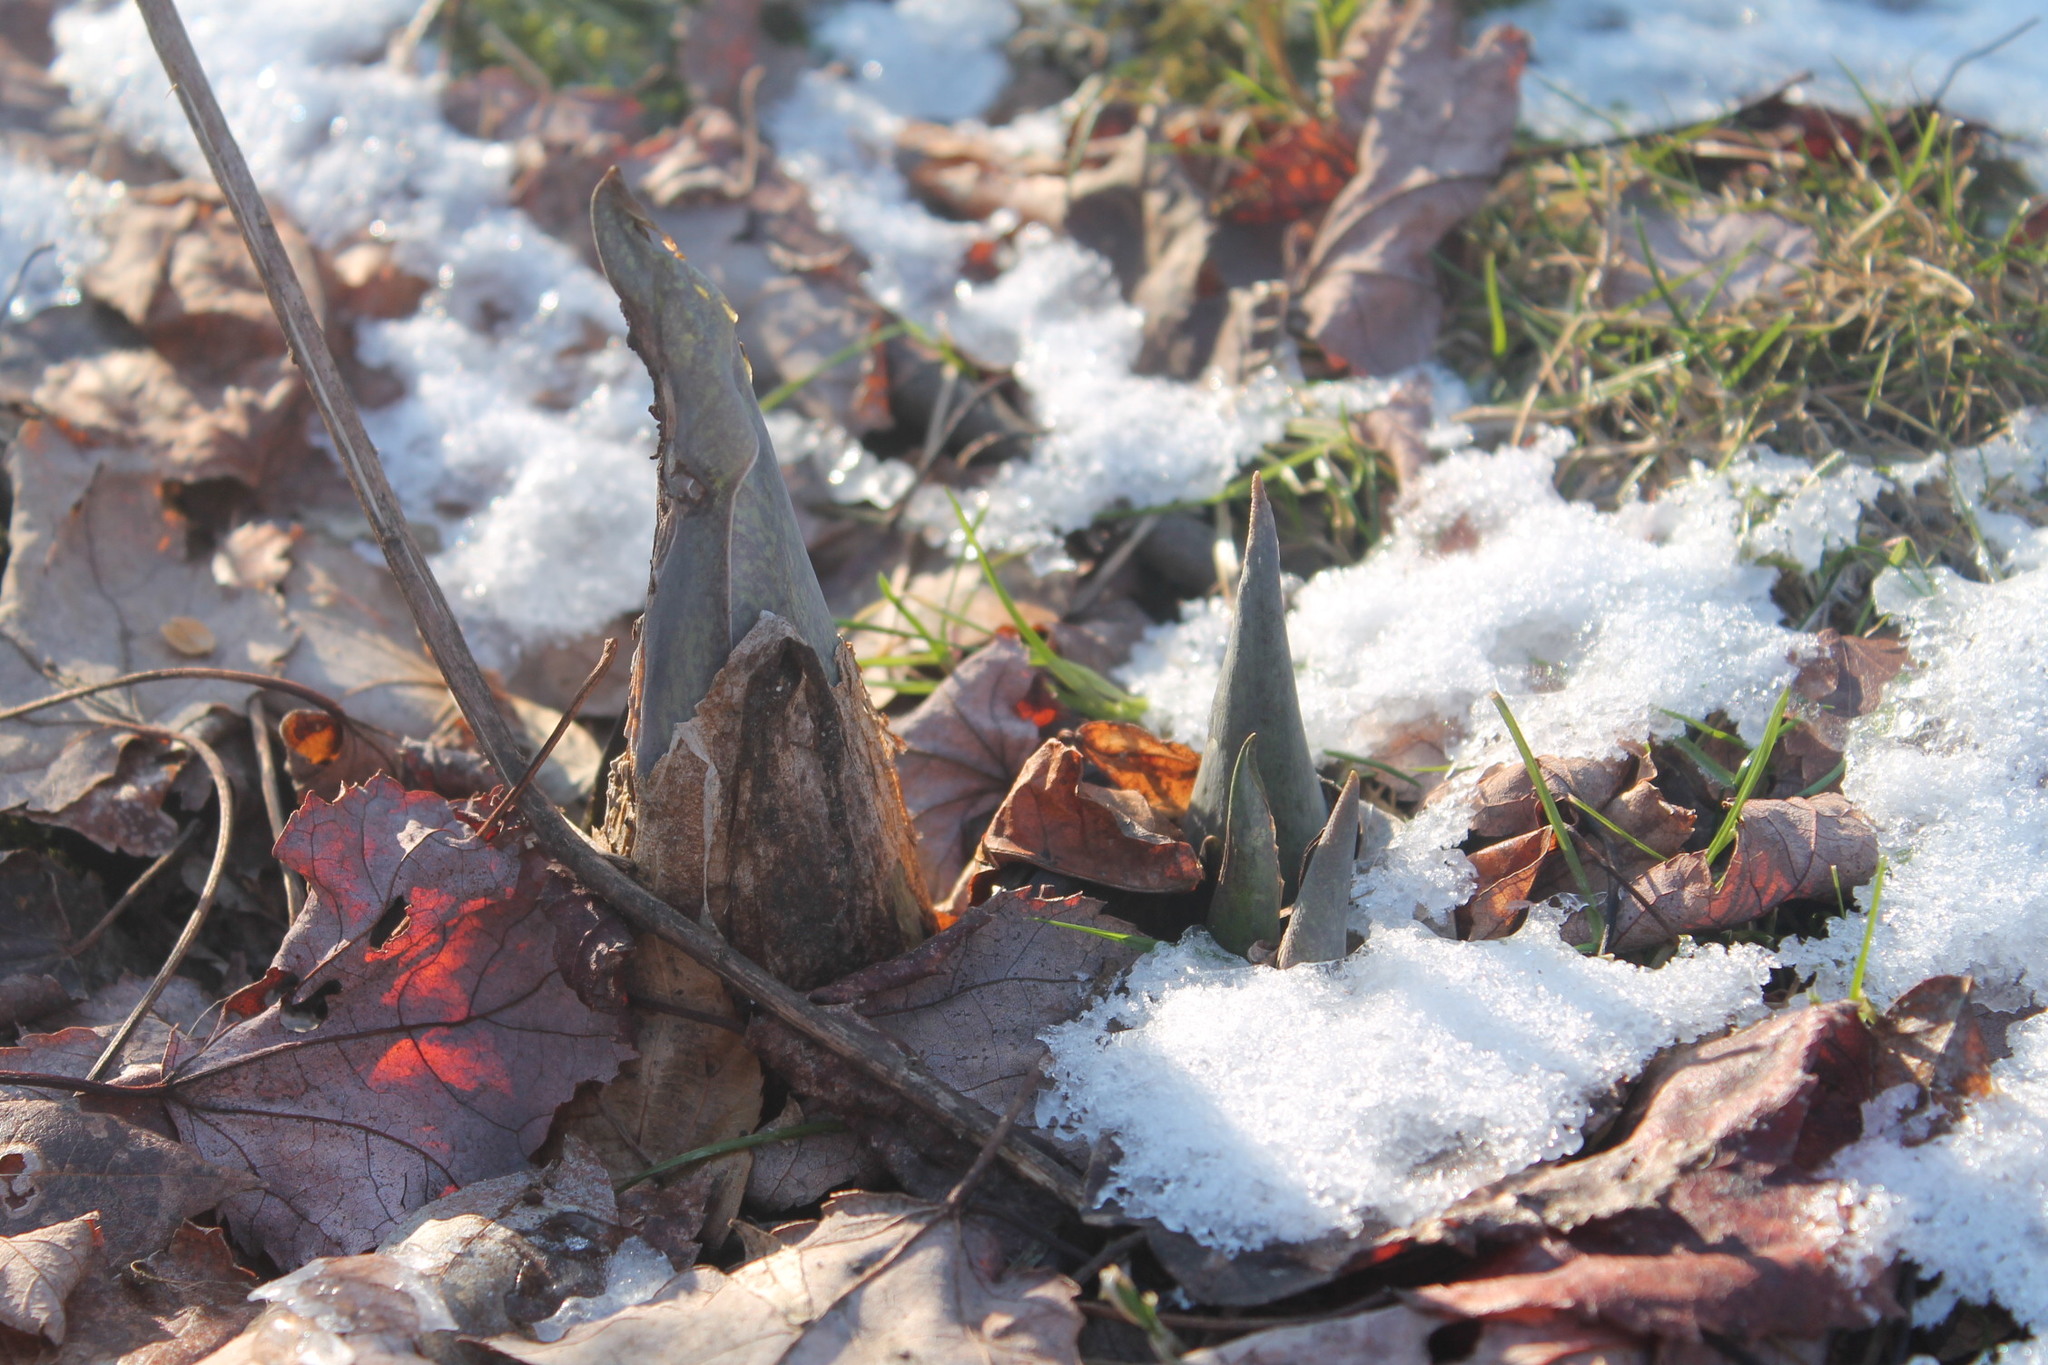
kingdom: Plantae
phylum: Tracheophyta
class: Liliopsida
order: Alismatales
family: Araceae
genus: Symplocarpus
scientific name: Symplocarpus foetidus
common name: Eastern skunk cabbage
